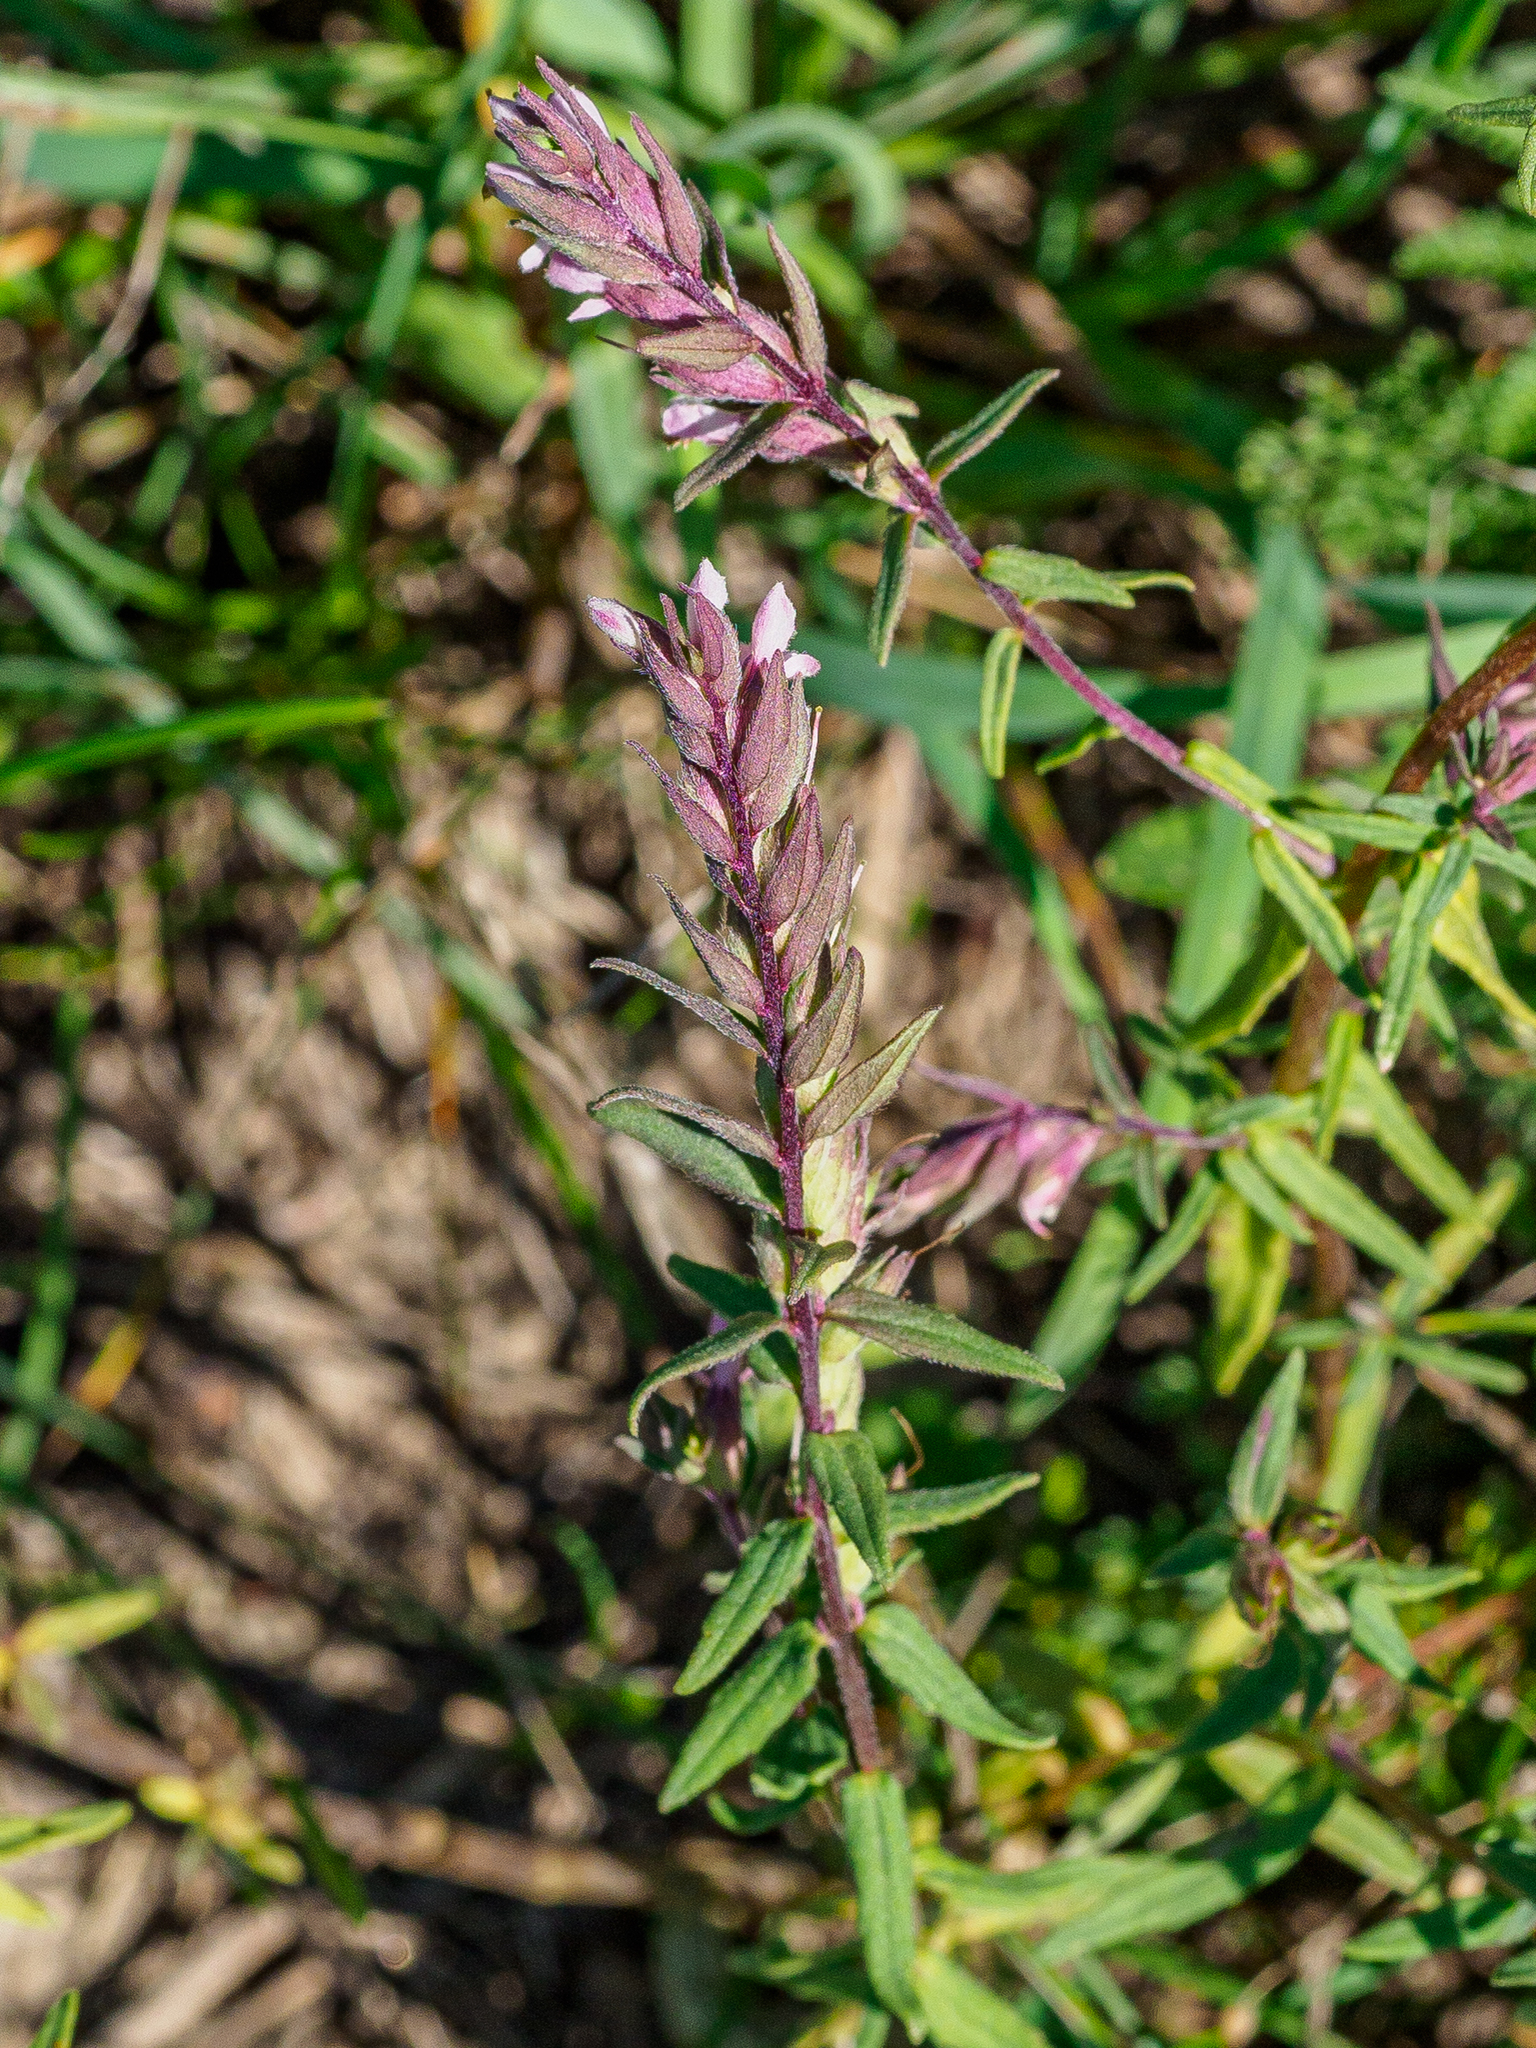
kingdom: Plantae
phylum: Tracheophyta
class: Magnoliopsida
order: Lamiales
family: Orobanchaceae
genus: Odontites
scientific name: Odontites vulgaris
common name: Broomrape
